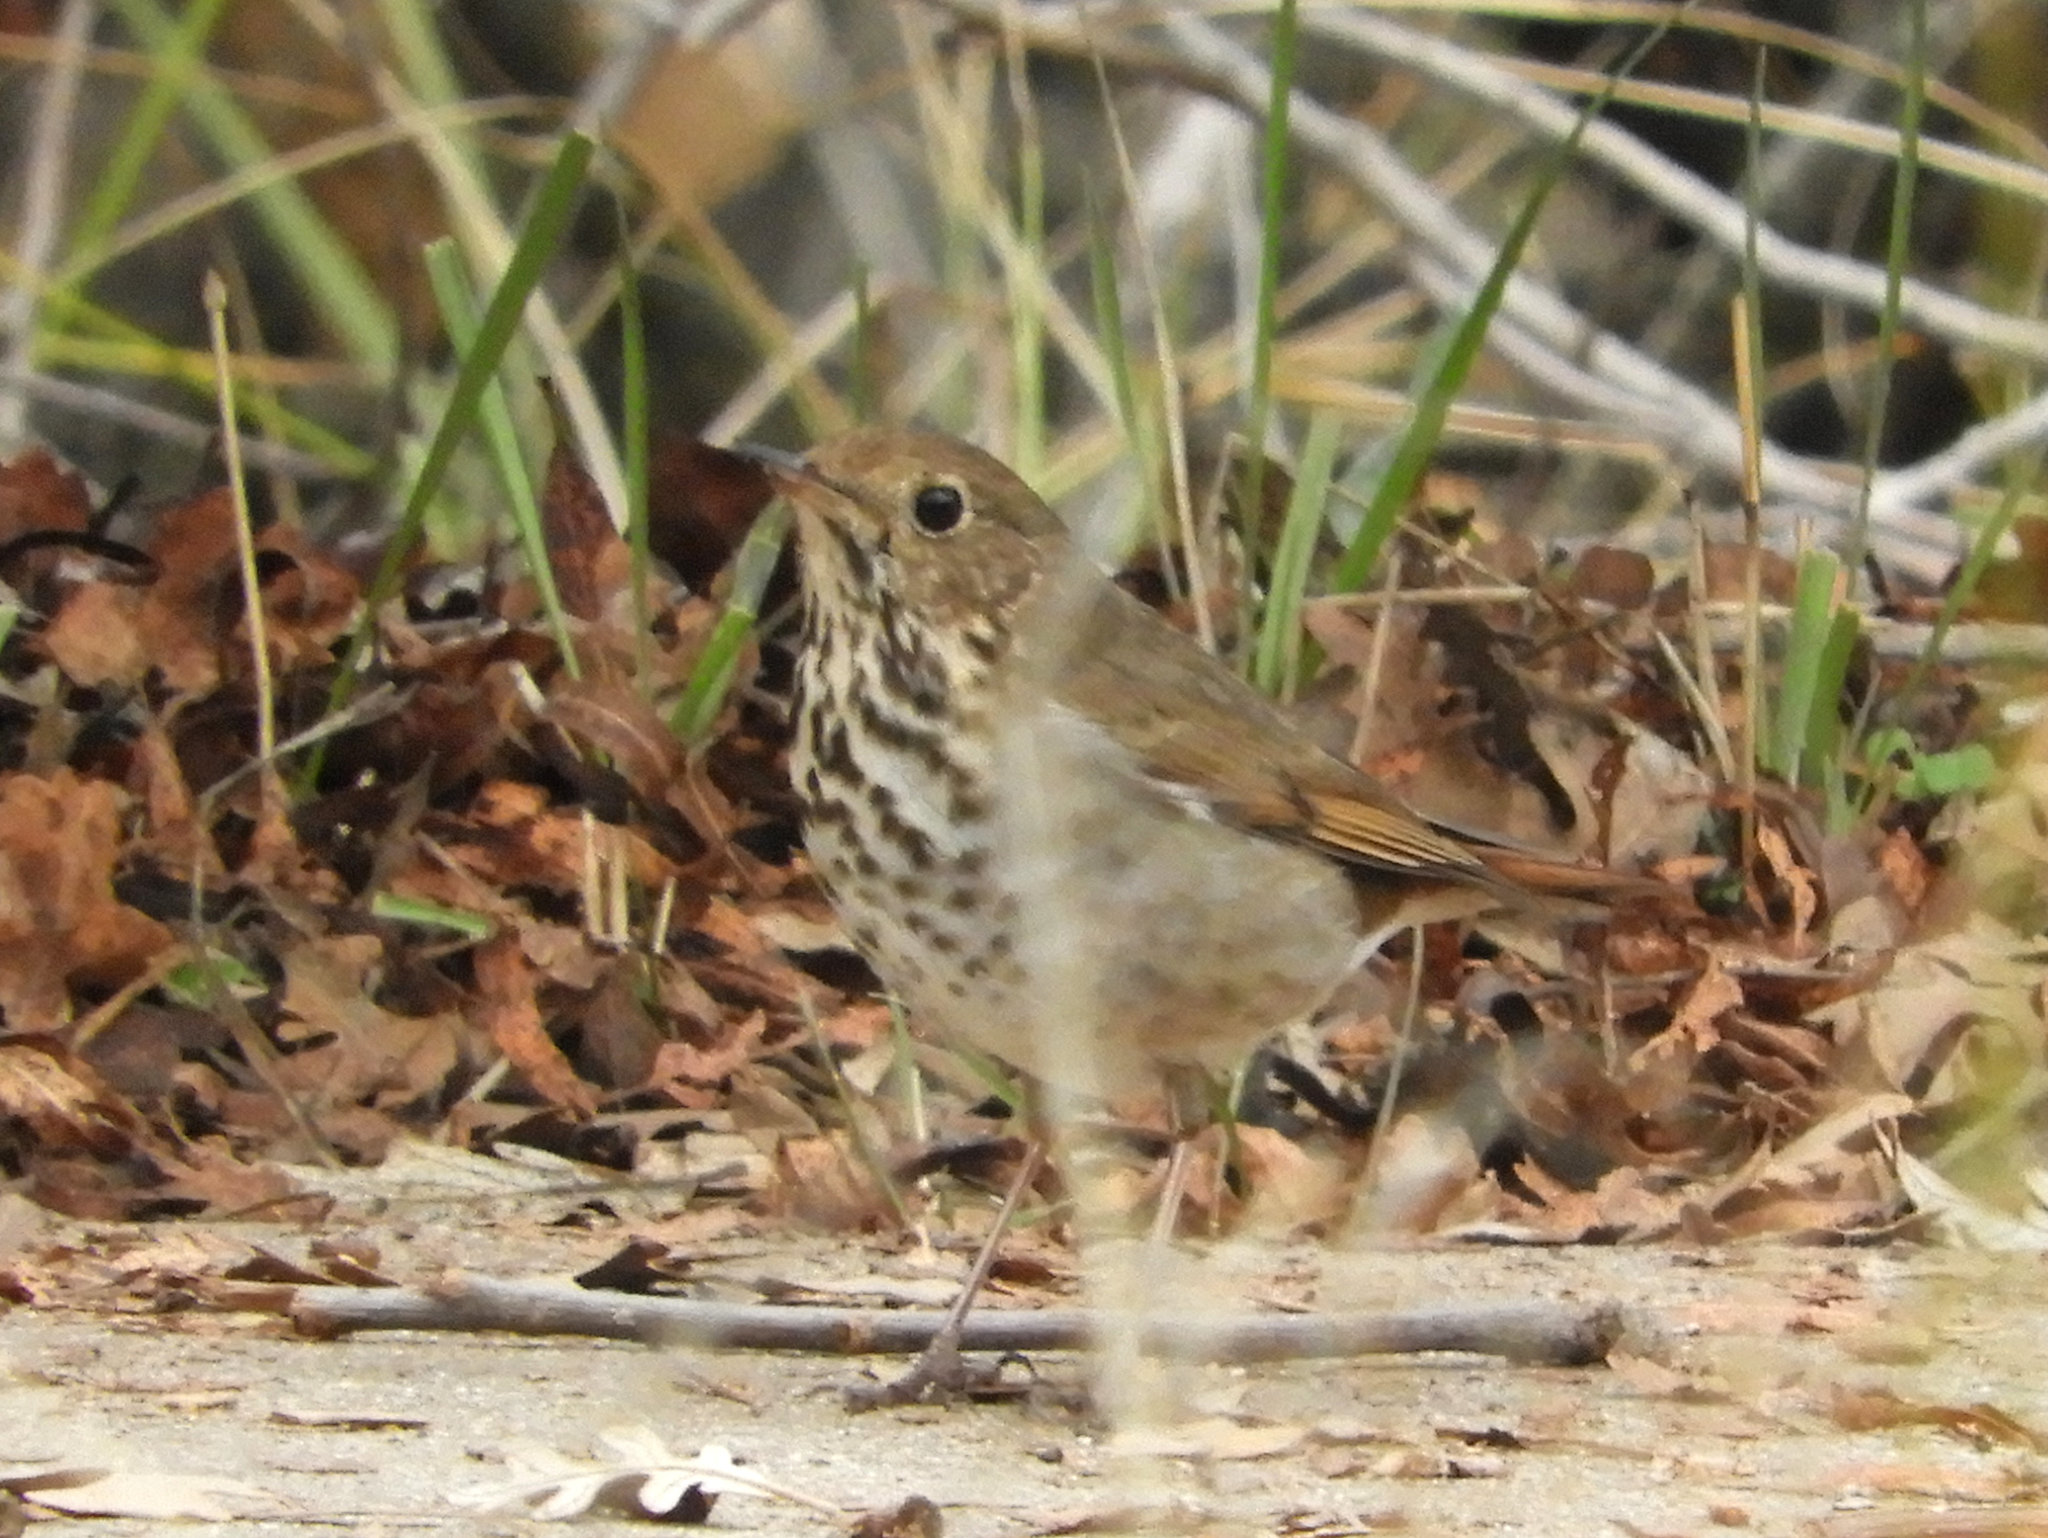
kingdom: Animalia
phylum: Chordata
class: Aves
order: Passeriformes
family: Turdidae
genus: Catharus
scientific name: Catharus guttatus
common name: Hermit thrush
